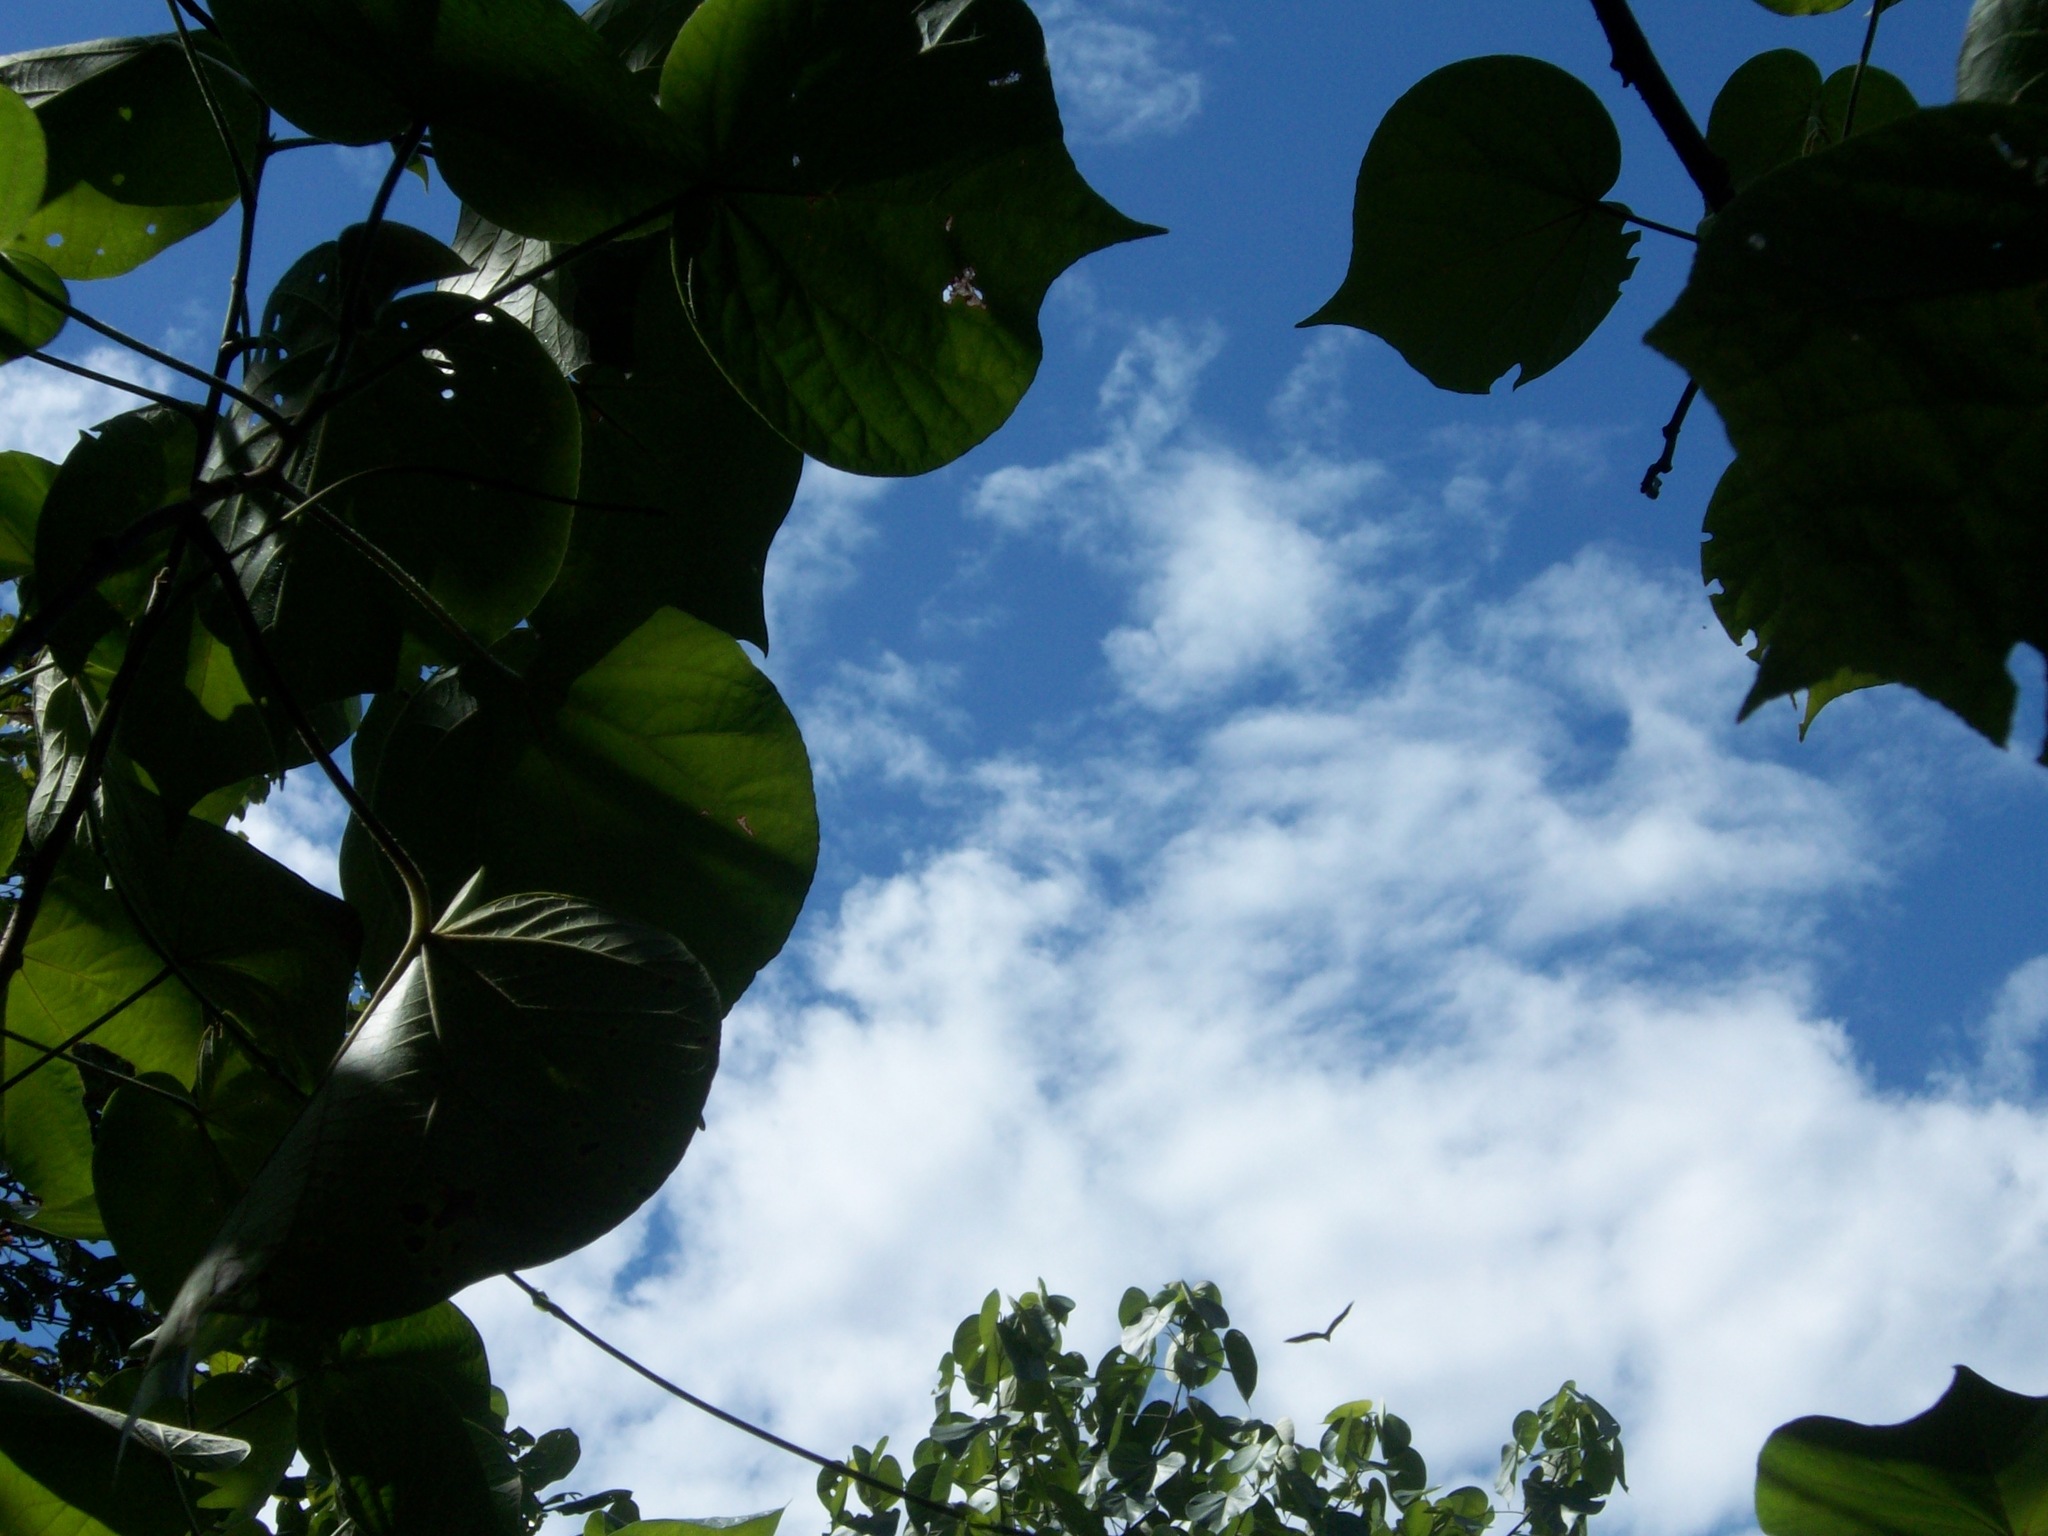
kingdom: Animalia
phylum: Chordata
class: Mammalia
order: Chiroptera
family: Pteropodidae
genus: Pteropus
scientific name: Pteropus rufus
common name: Madagascan flying fox
